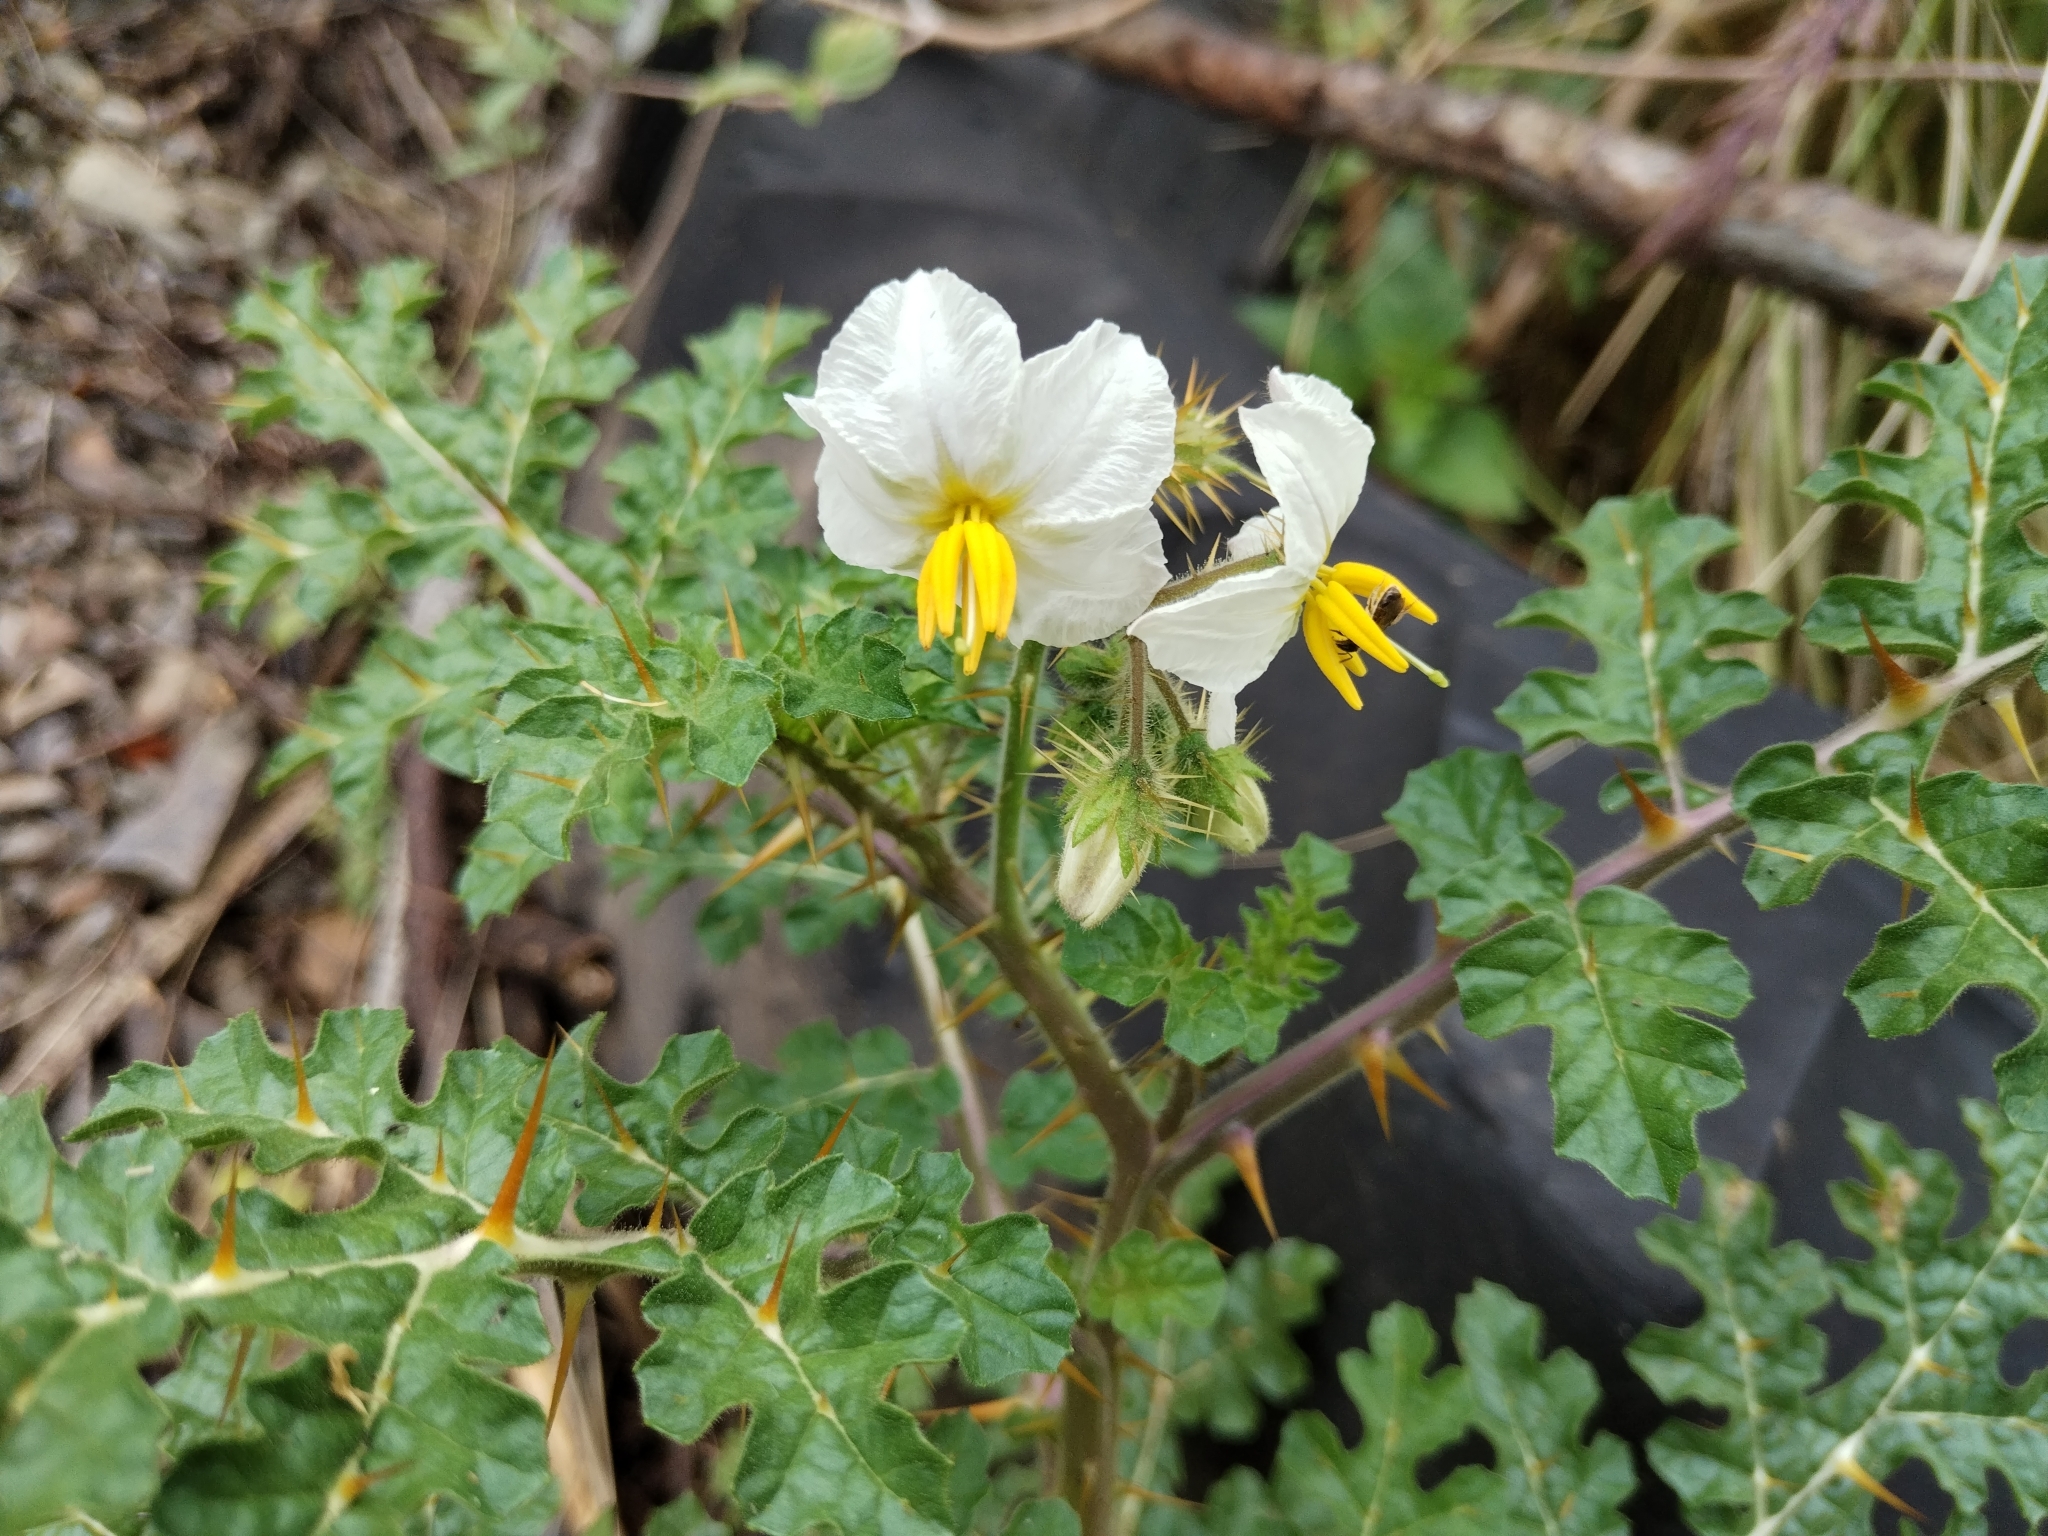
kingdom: Plantae
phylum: Tracheophyta
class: Magnoliopsida
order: Solanales
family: Solanaceae
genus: Solanum
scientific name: Solanum sisymbriifolium
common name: Red buffalo-bur
